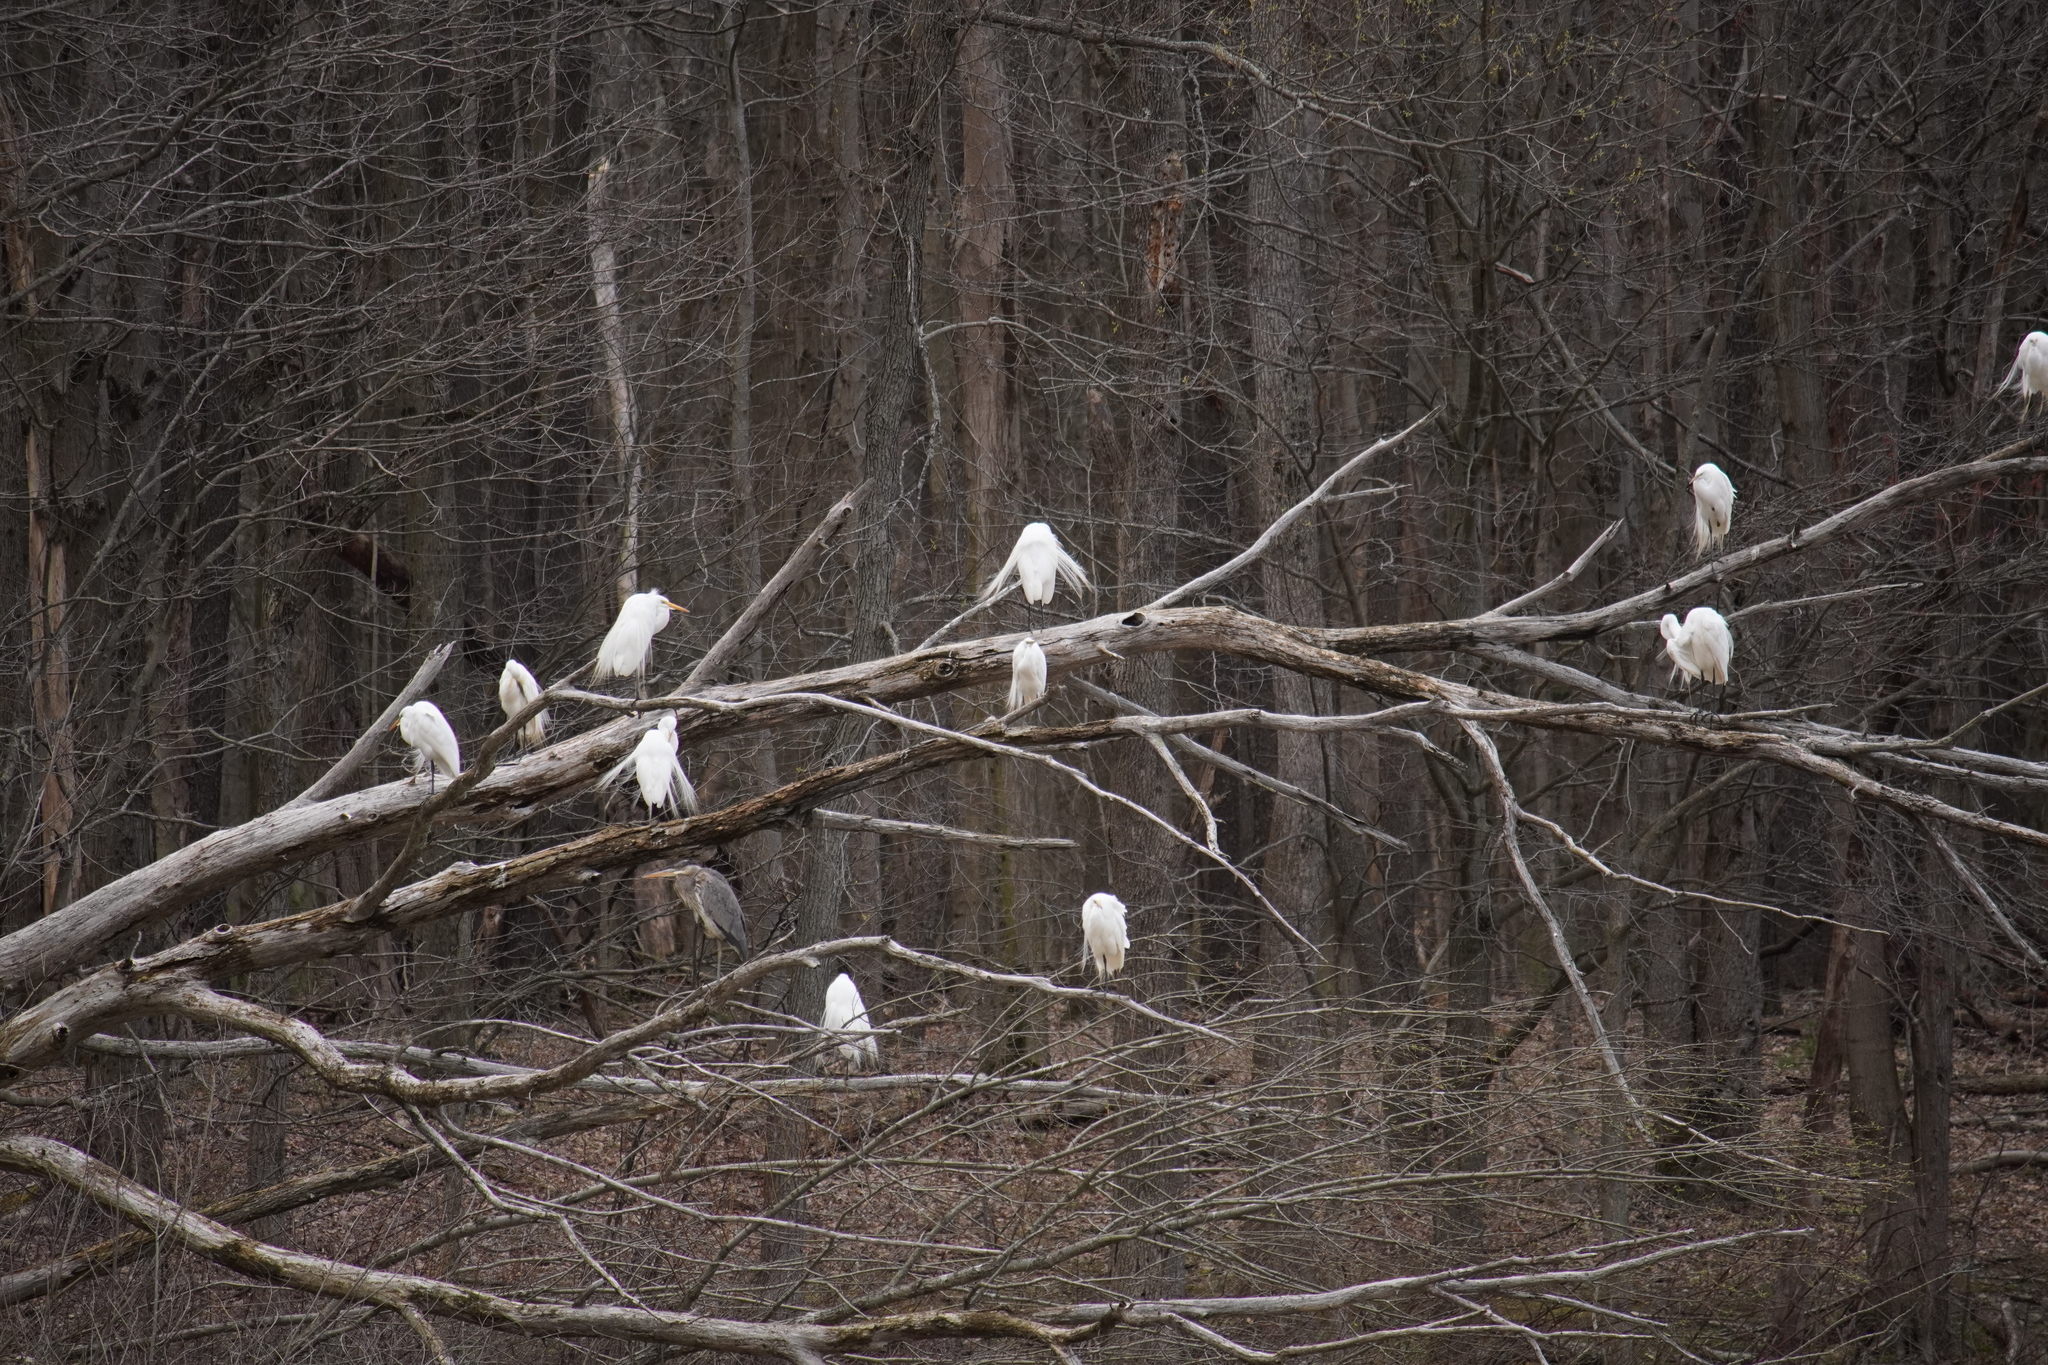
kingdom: Animalia
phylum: Chordata
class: Aves
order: Pelecaniformes
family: Ardeidae
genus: Ardea
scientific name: Ardea alba
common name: Great egret
